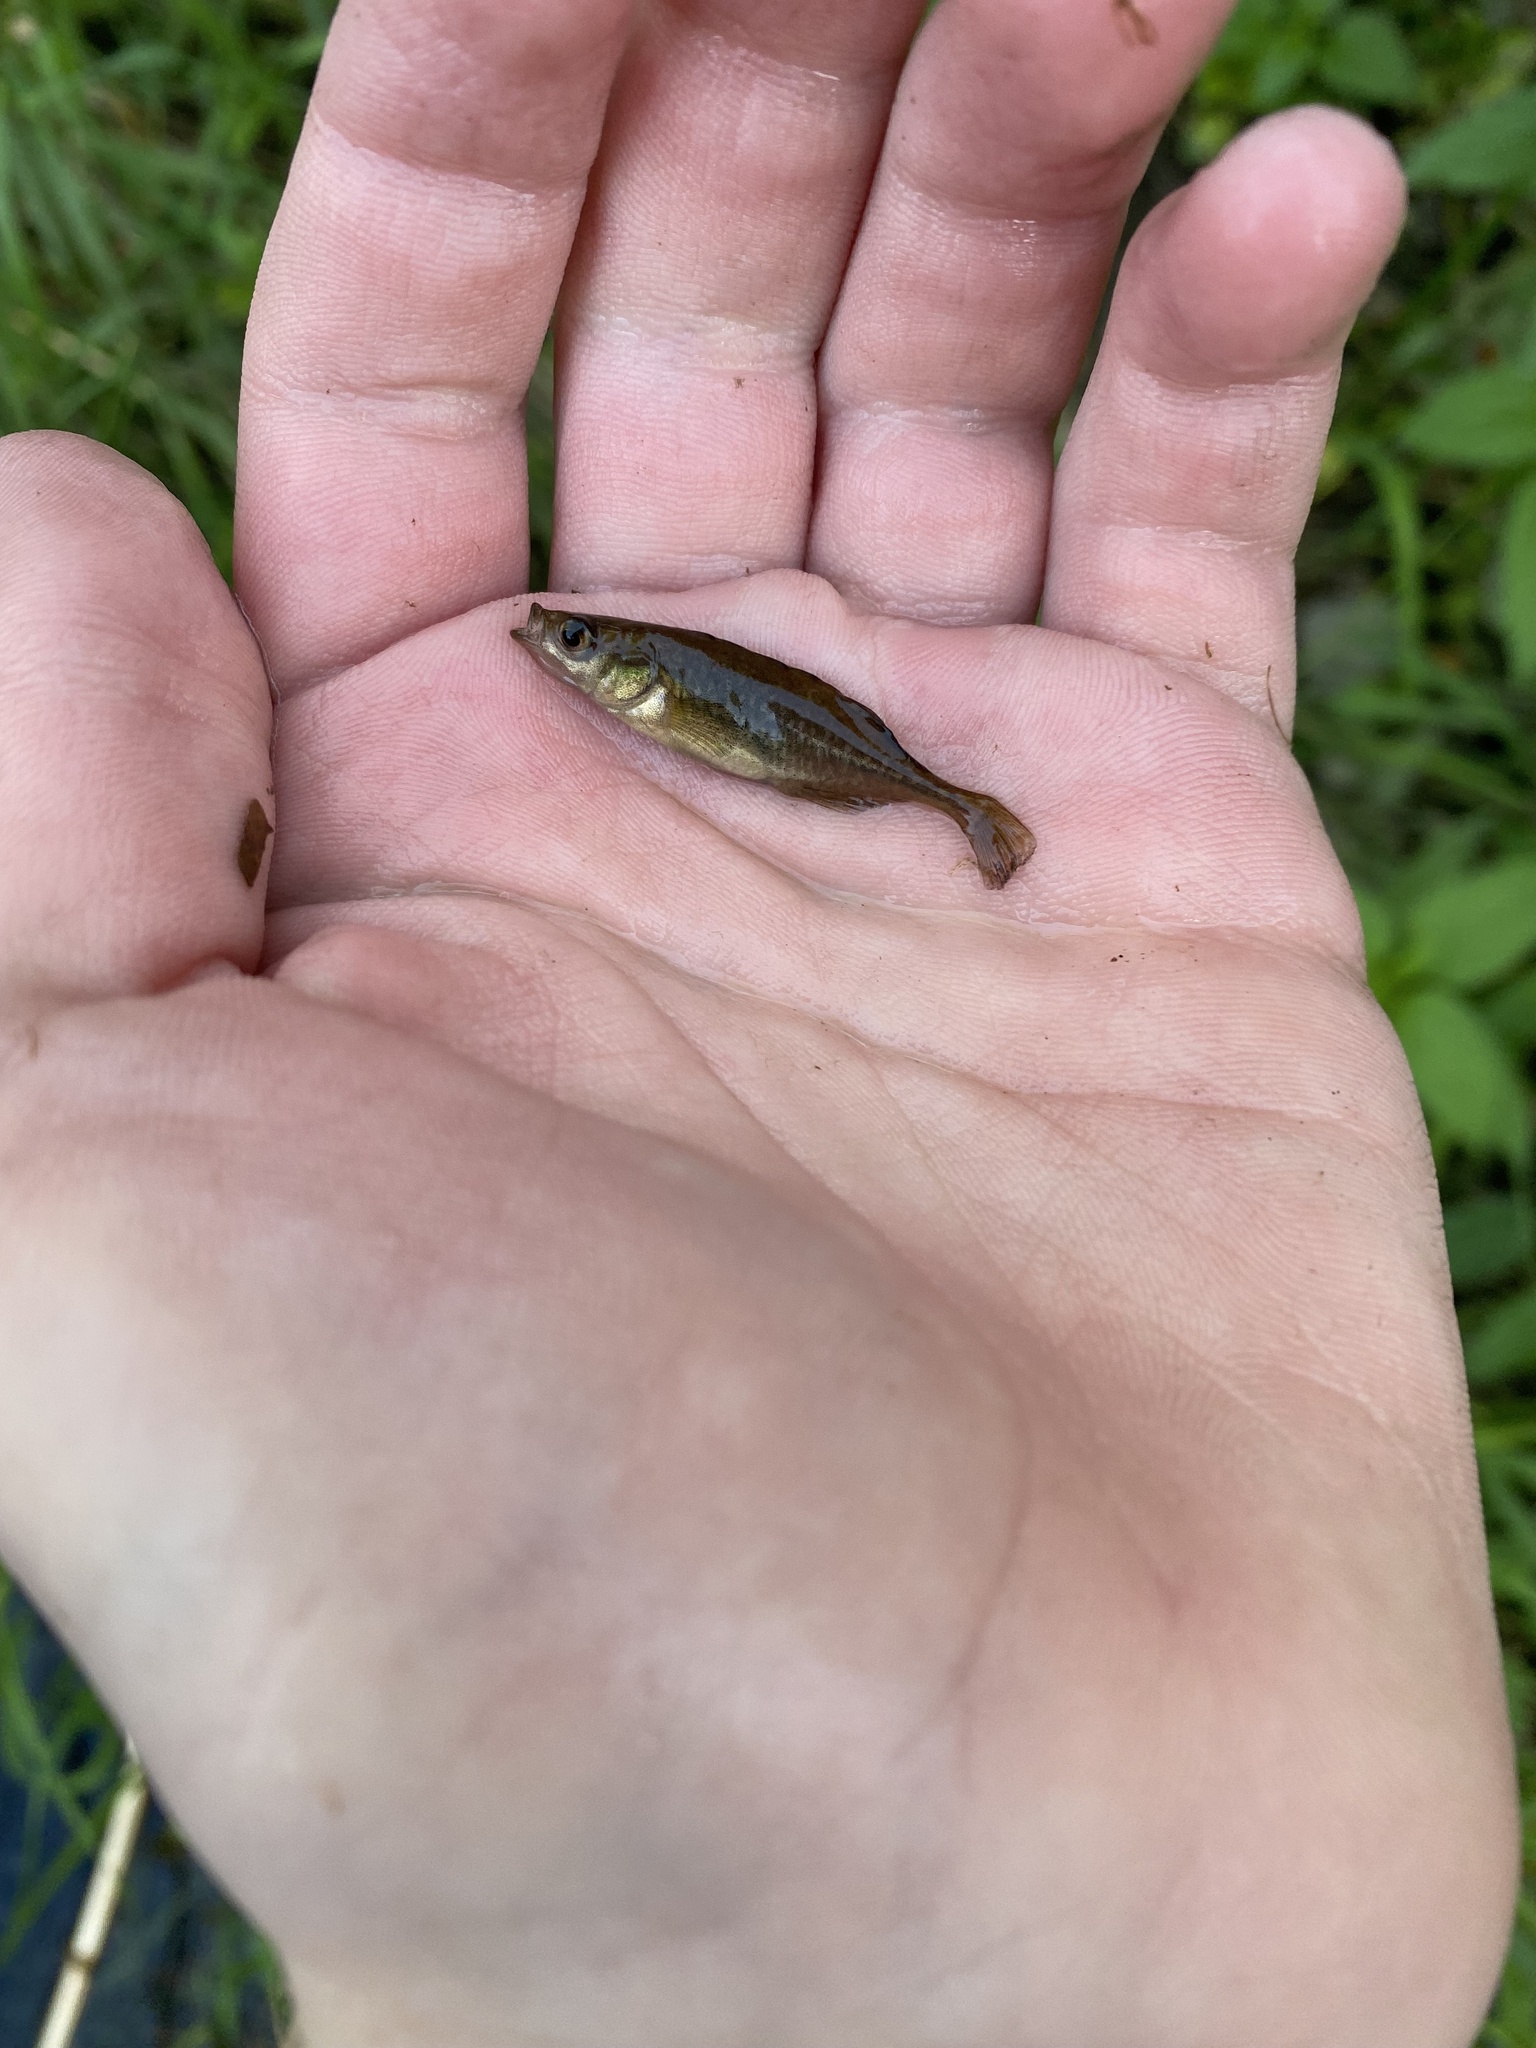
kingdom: Animalia
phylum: Chordata
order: Gasterosteiformes
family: Gasterosteidae
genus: Culaea
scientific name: Culaea inconstans
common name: Brook stickleback
